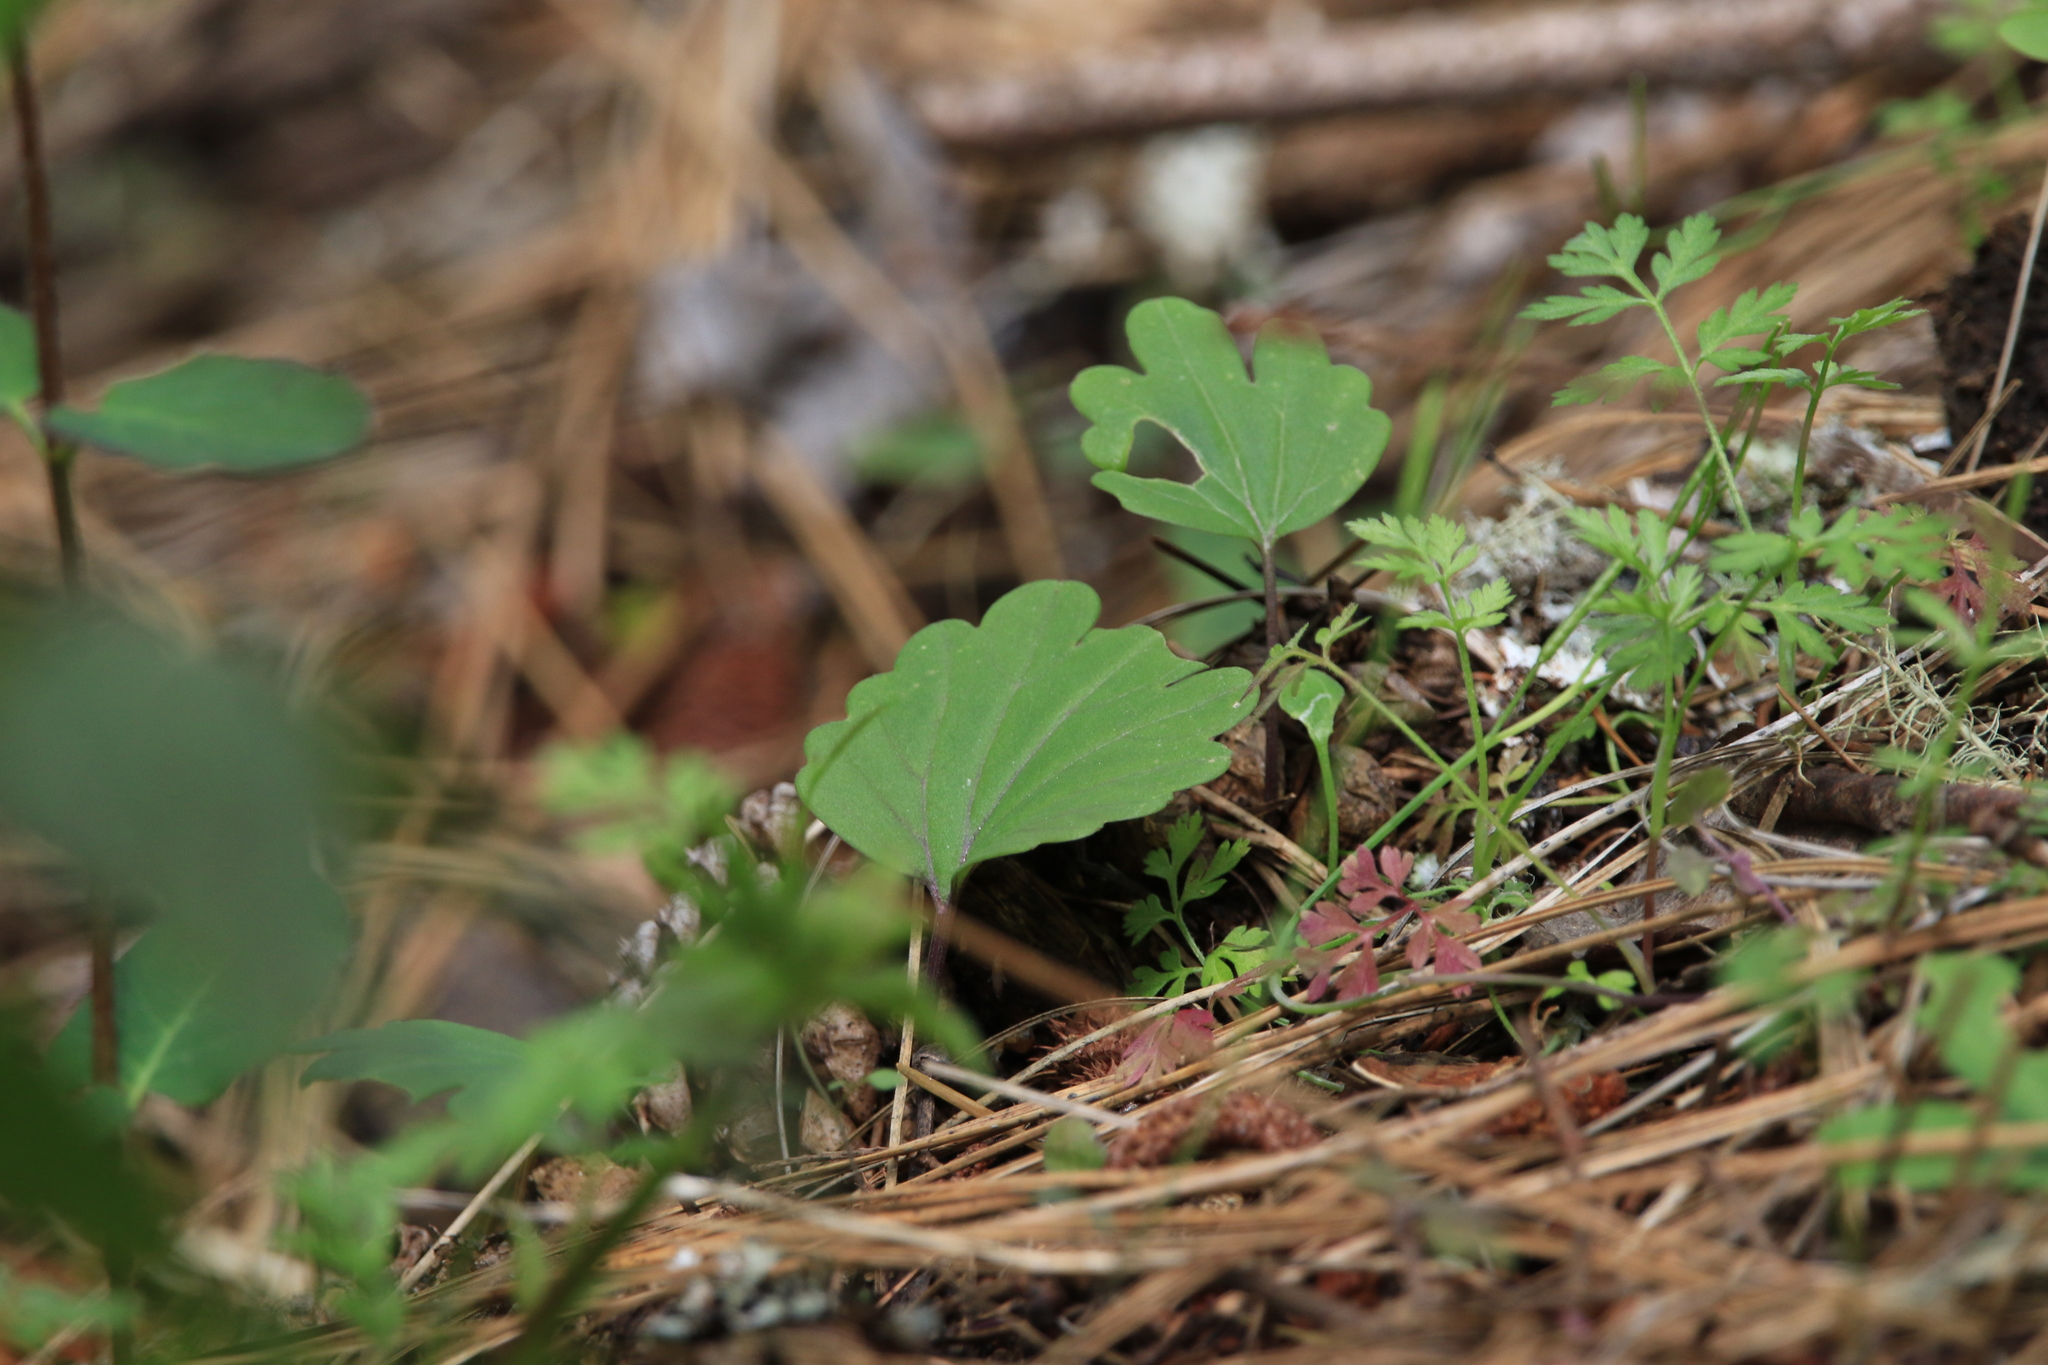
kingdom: Plantae
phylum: Tracheophyta
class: Magnoliopsida
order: Brassicales
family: Brassicaceae
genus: Cardamine
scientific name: Cardamine nuttallii
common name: Nuttall's toothwort
